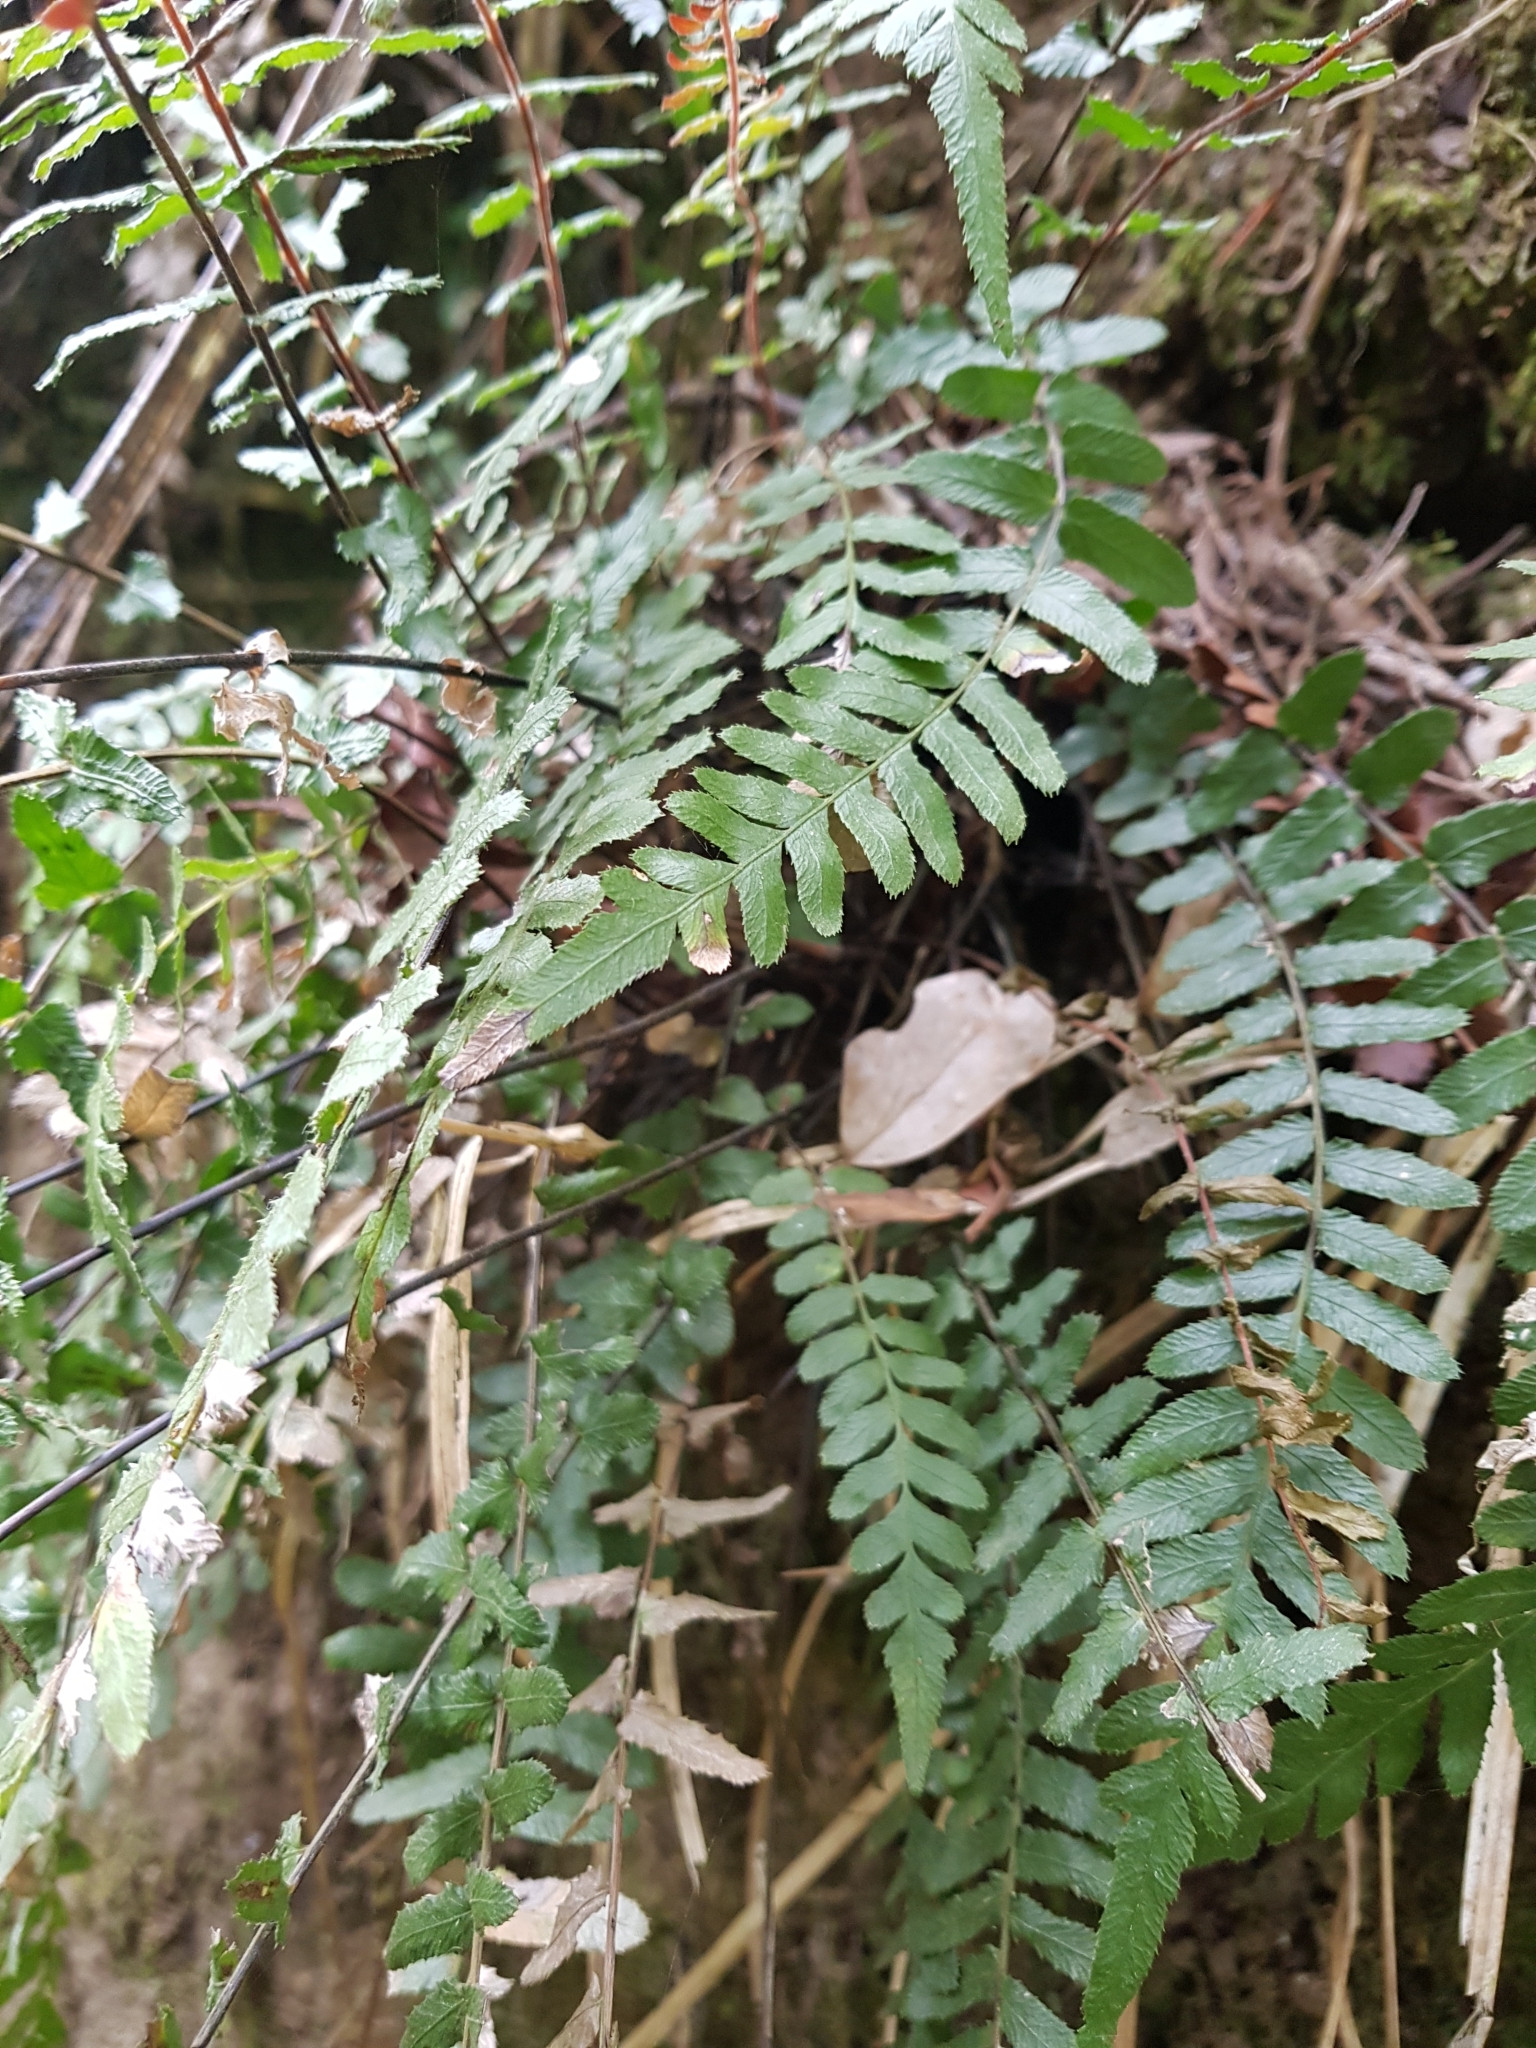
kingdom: Plantae
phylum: Tracheophyta
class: Polypodiopsida
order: Polypodiales
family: Blechnaceae
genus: Doodia
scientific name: Doodia australis
